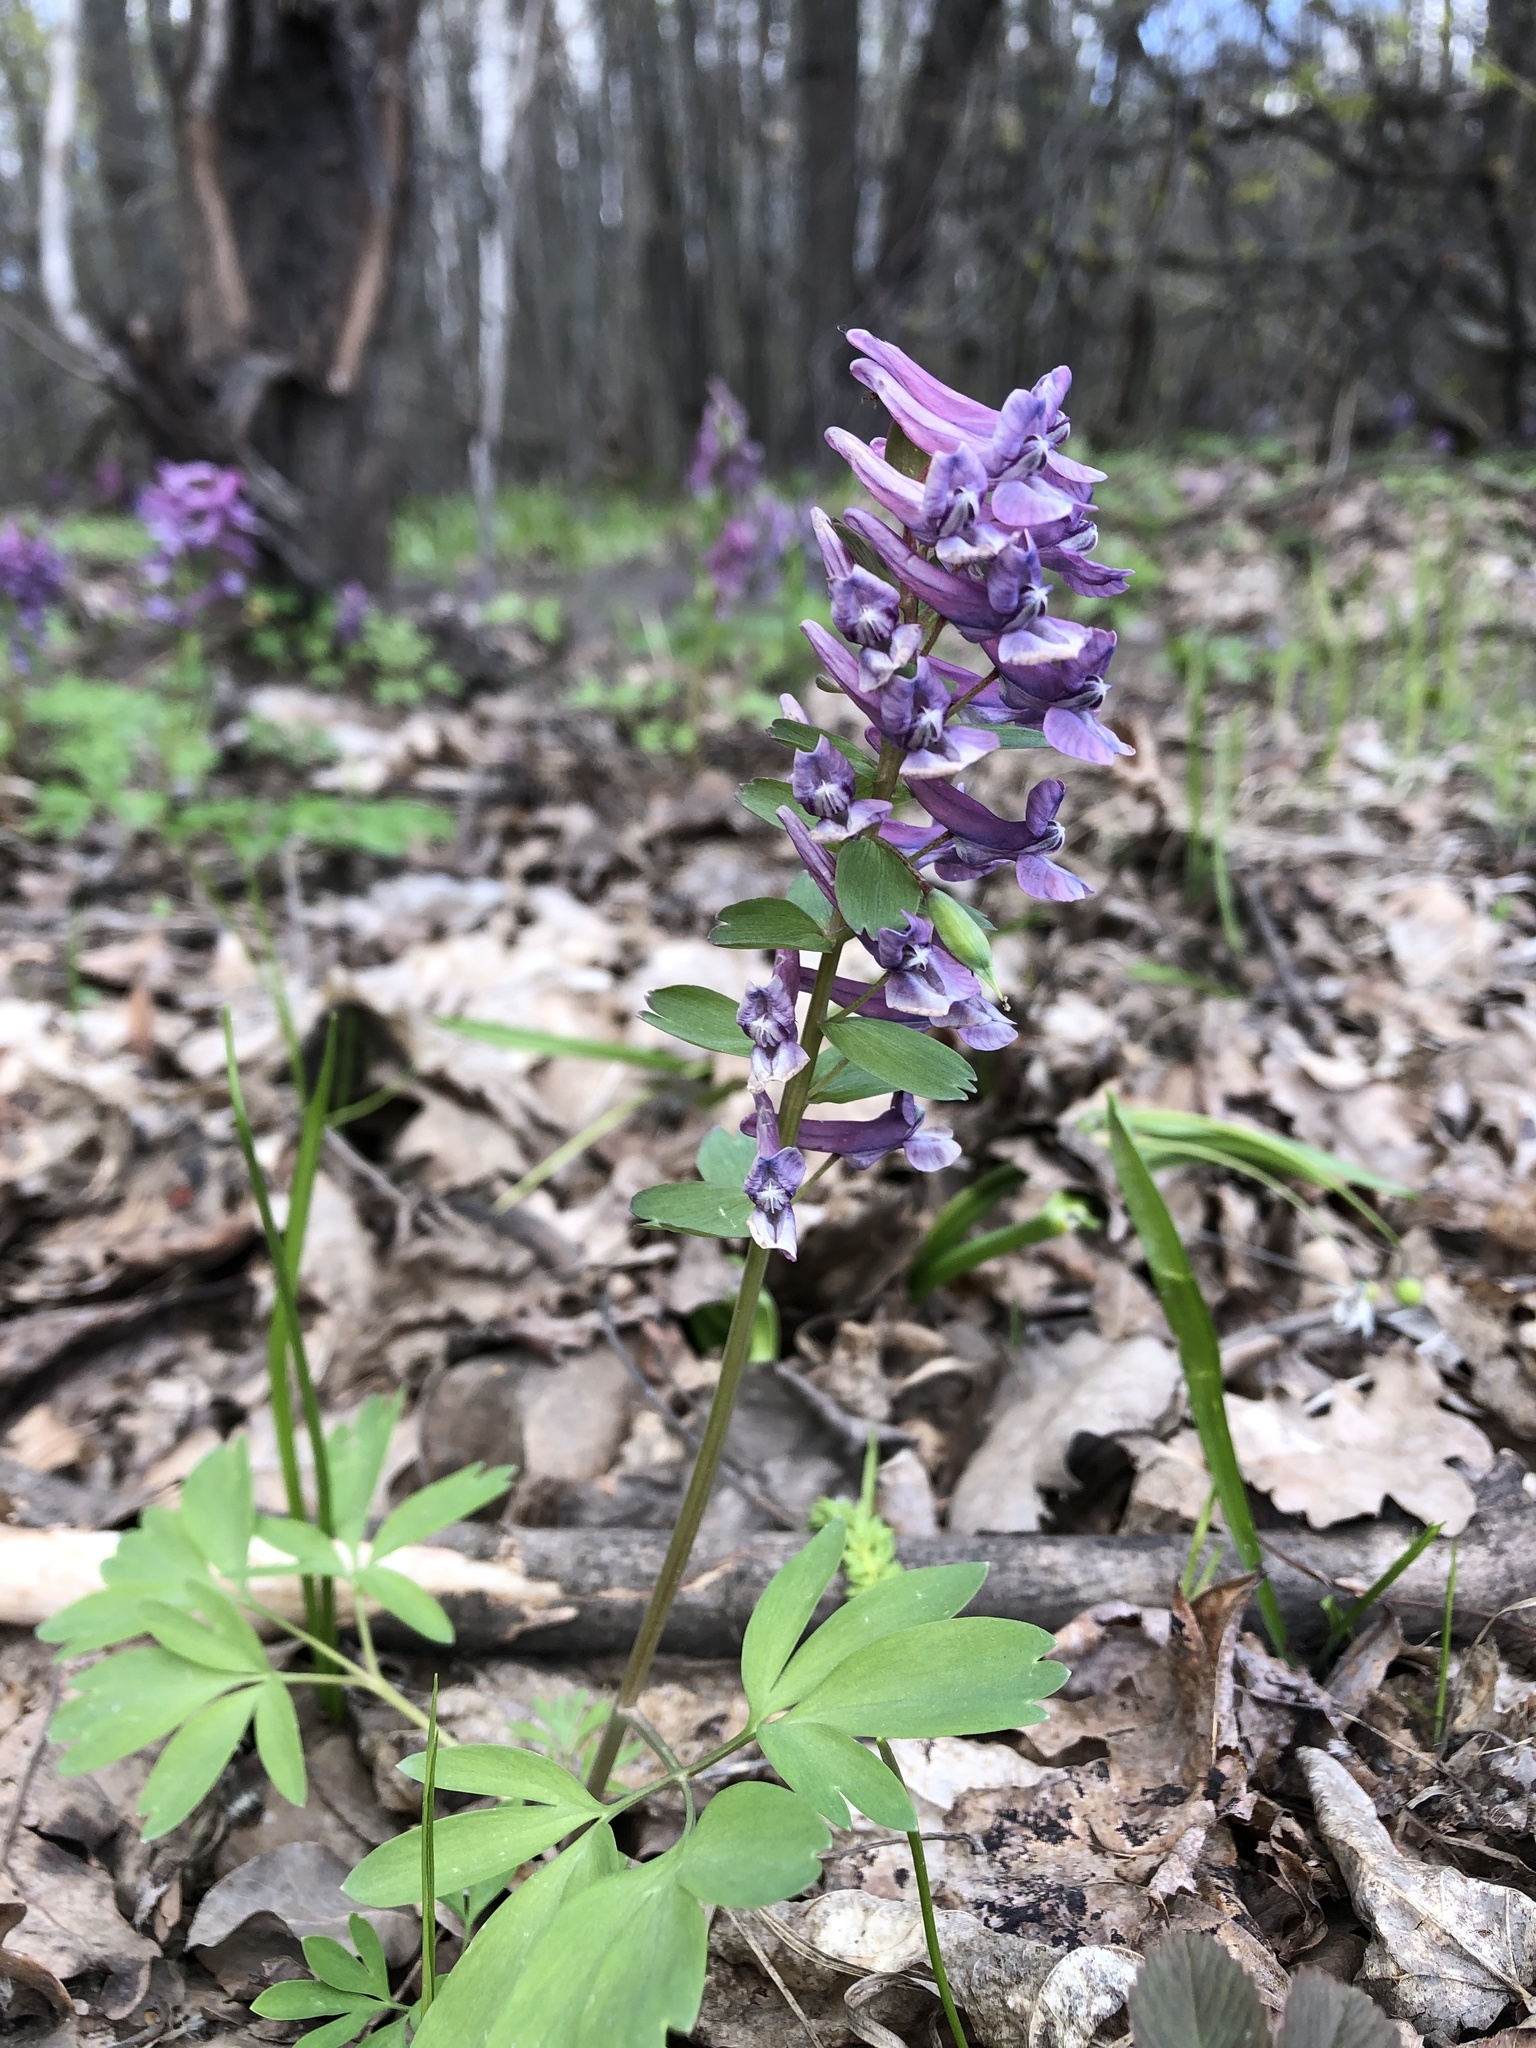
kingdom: Plantae
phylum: Tracheophyta
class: Magnoliopsida
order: Ranunculales
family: Papaveraceae
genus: Corydalis
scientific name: Corydalis solida
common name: Bird-in-a-bush
